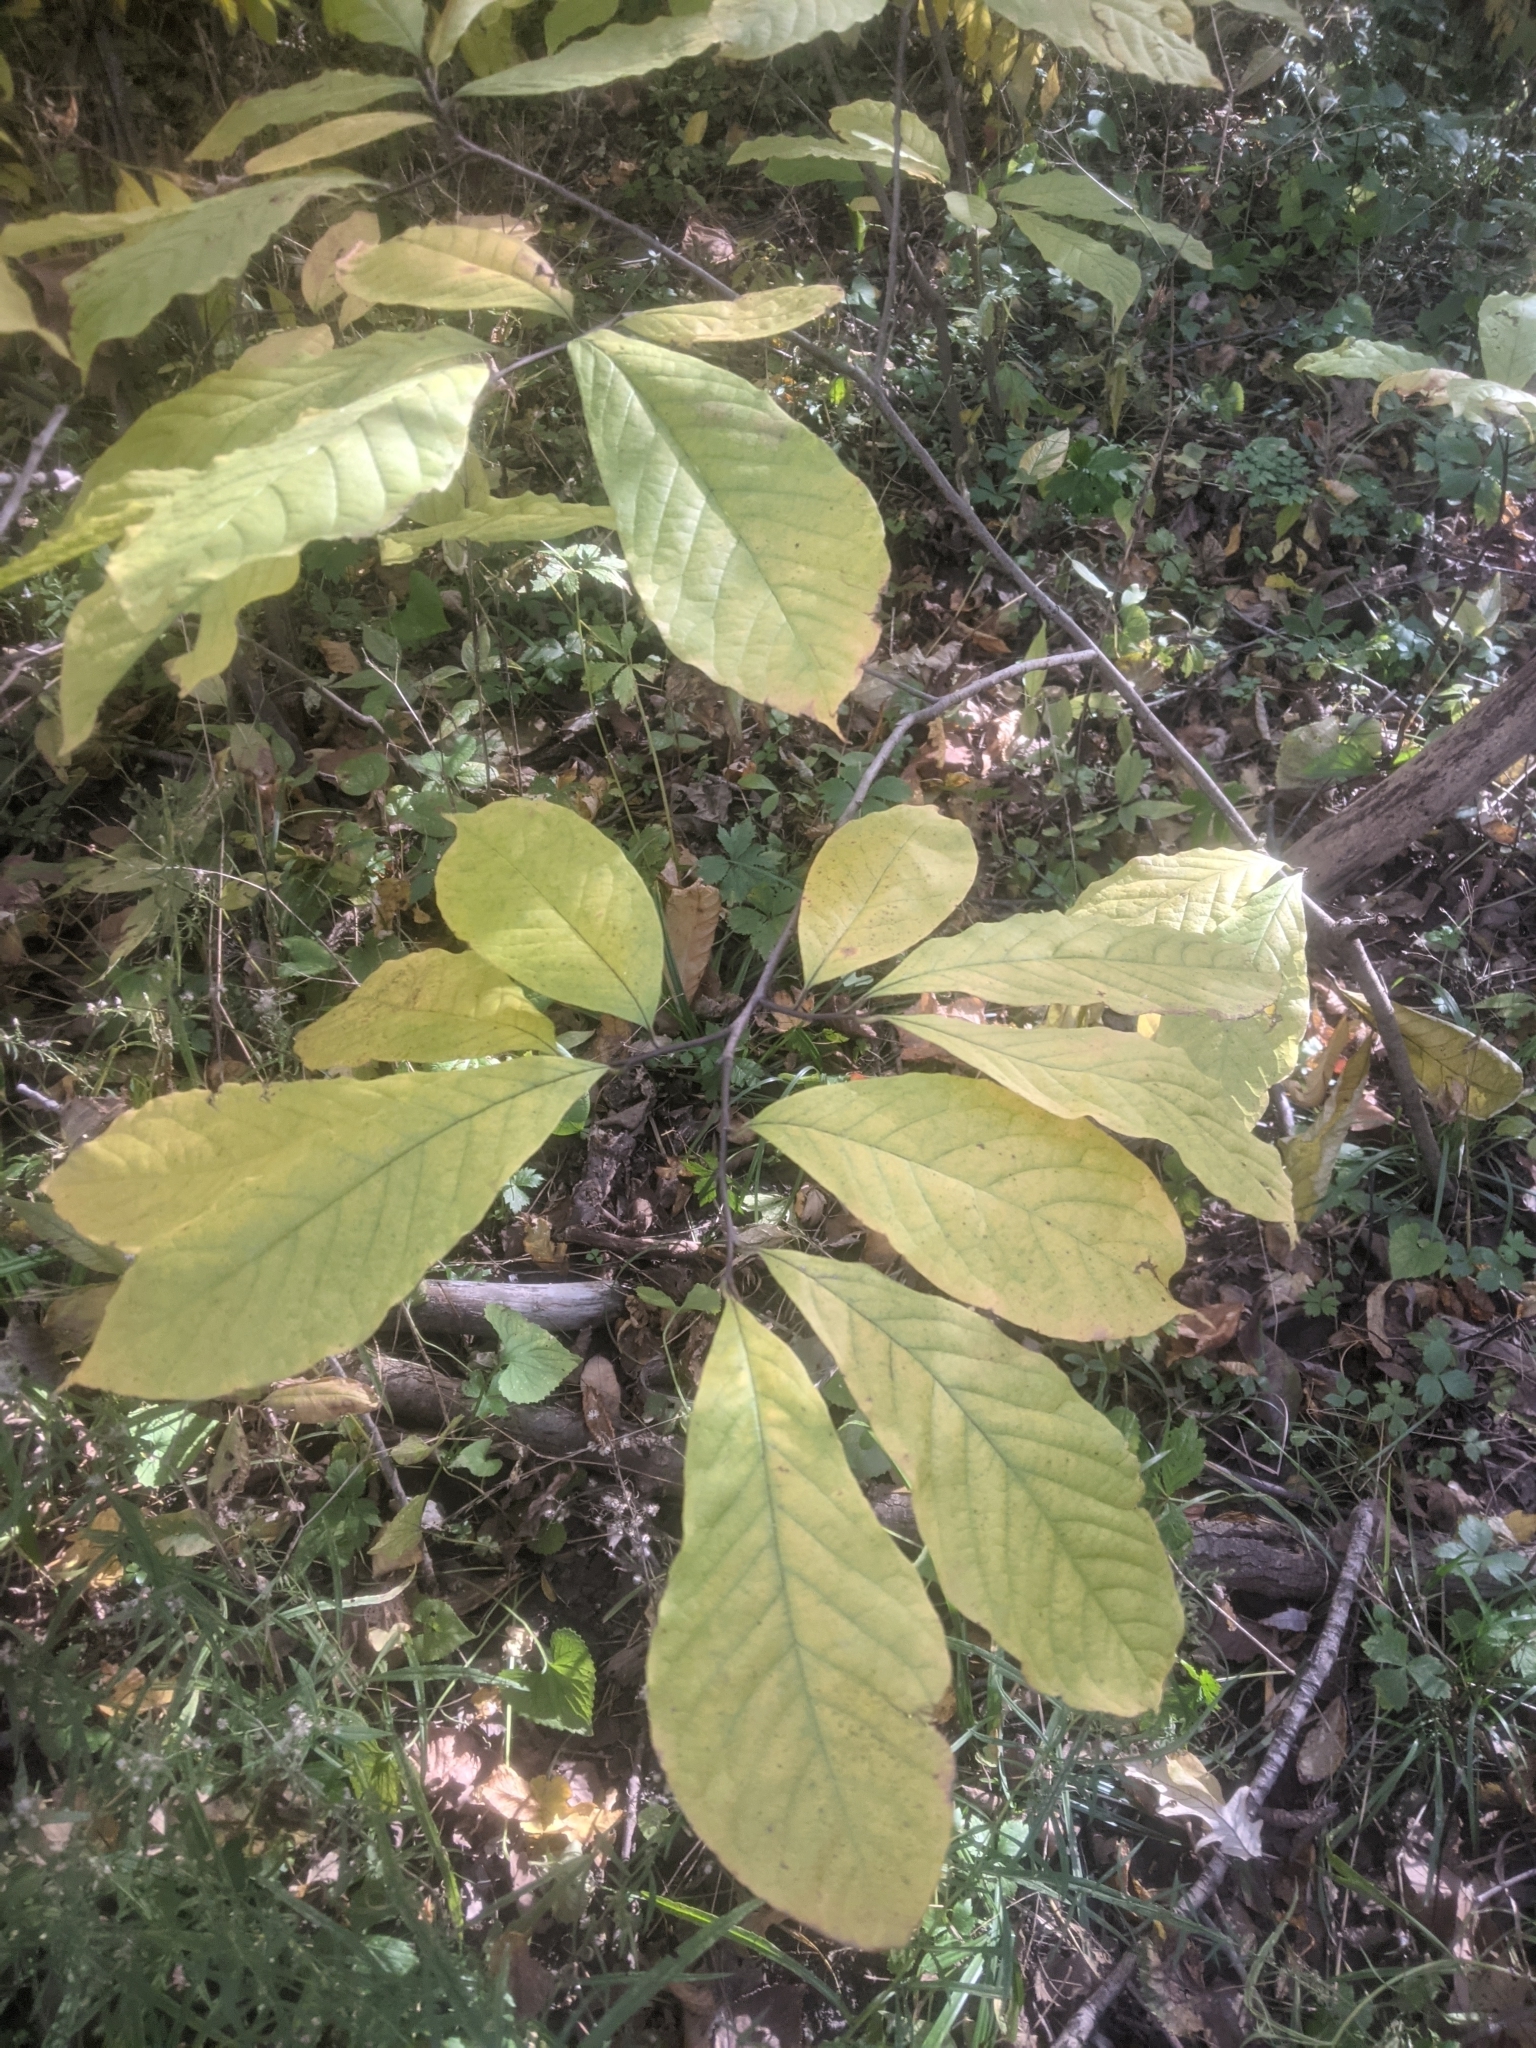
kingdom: Plantae
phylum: Tracheophyta
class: Magnoliopsida
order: Magnoliales
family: Annonaceae
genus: Asimina
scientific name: Asimina triloba
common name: Dog-banana
